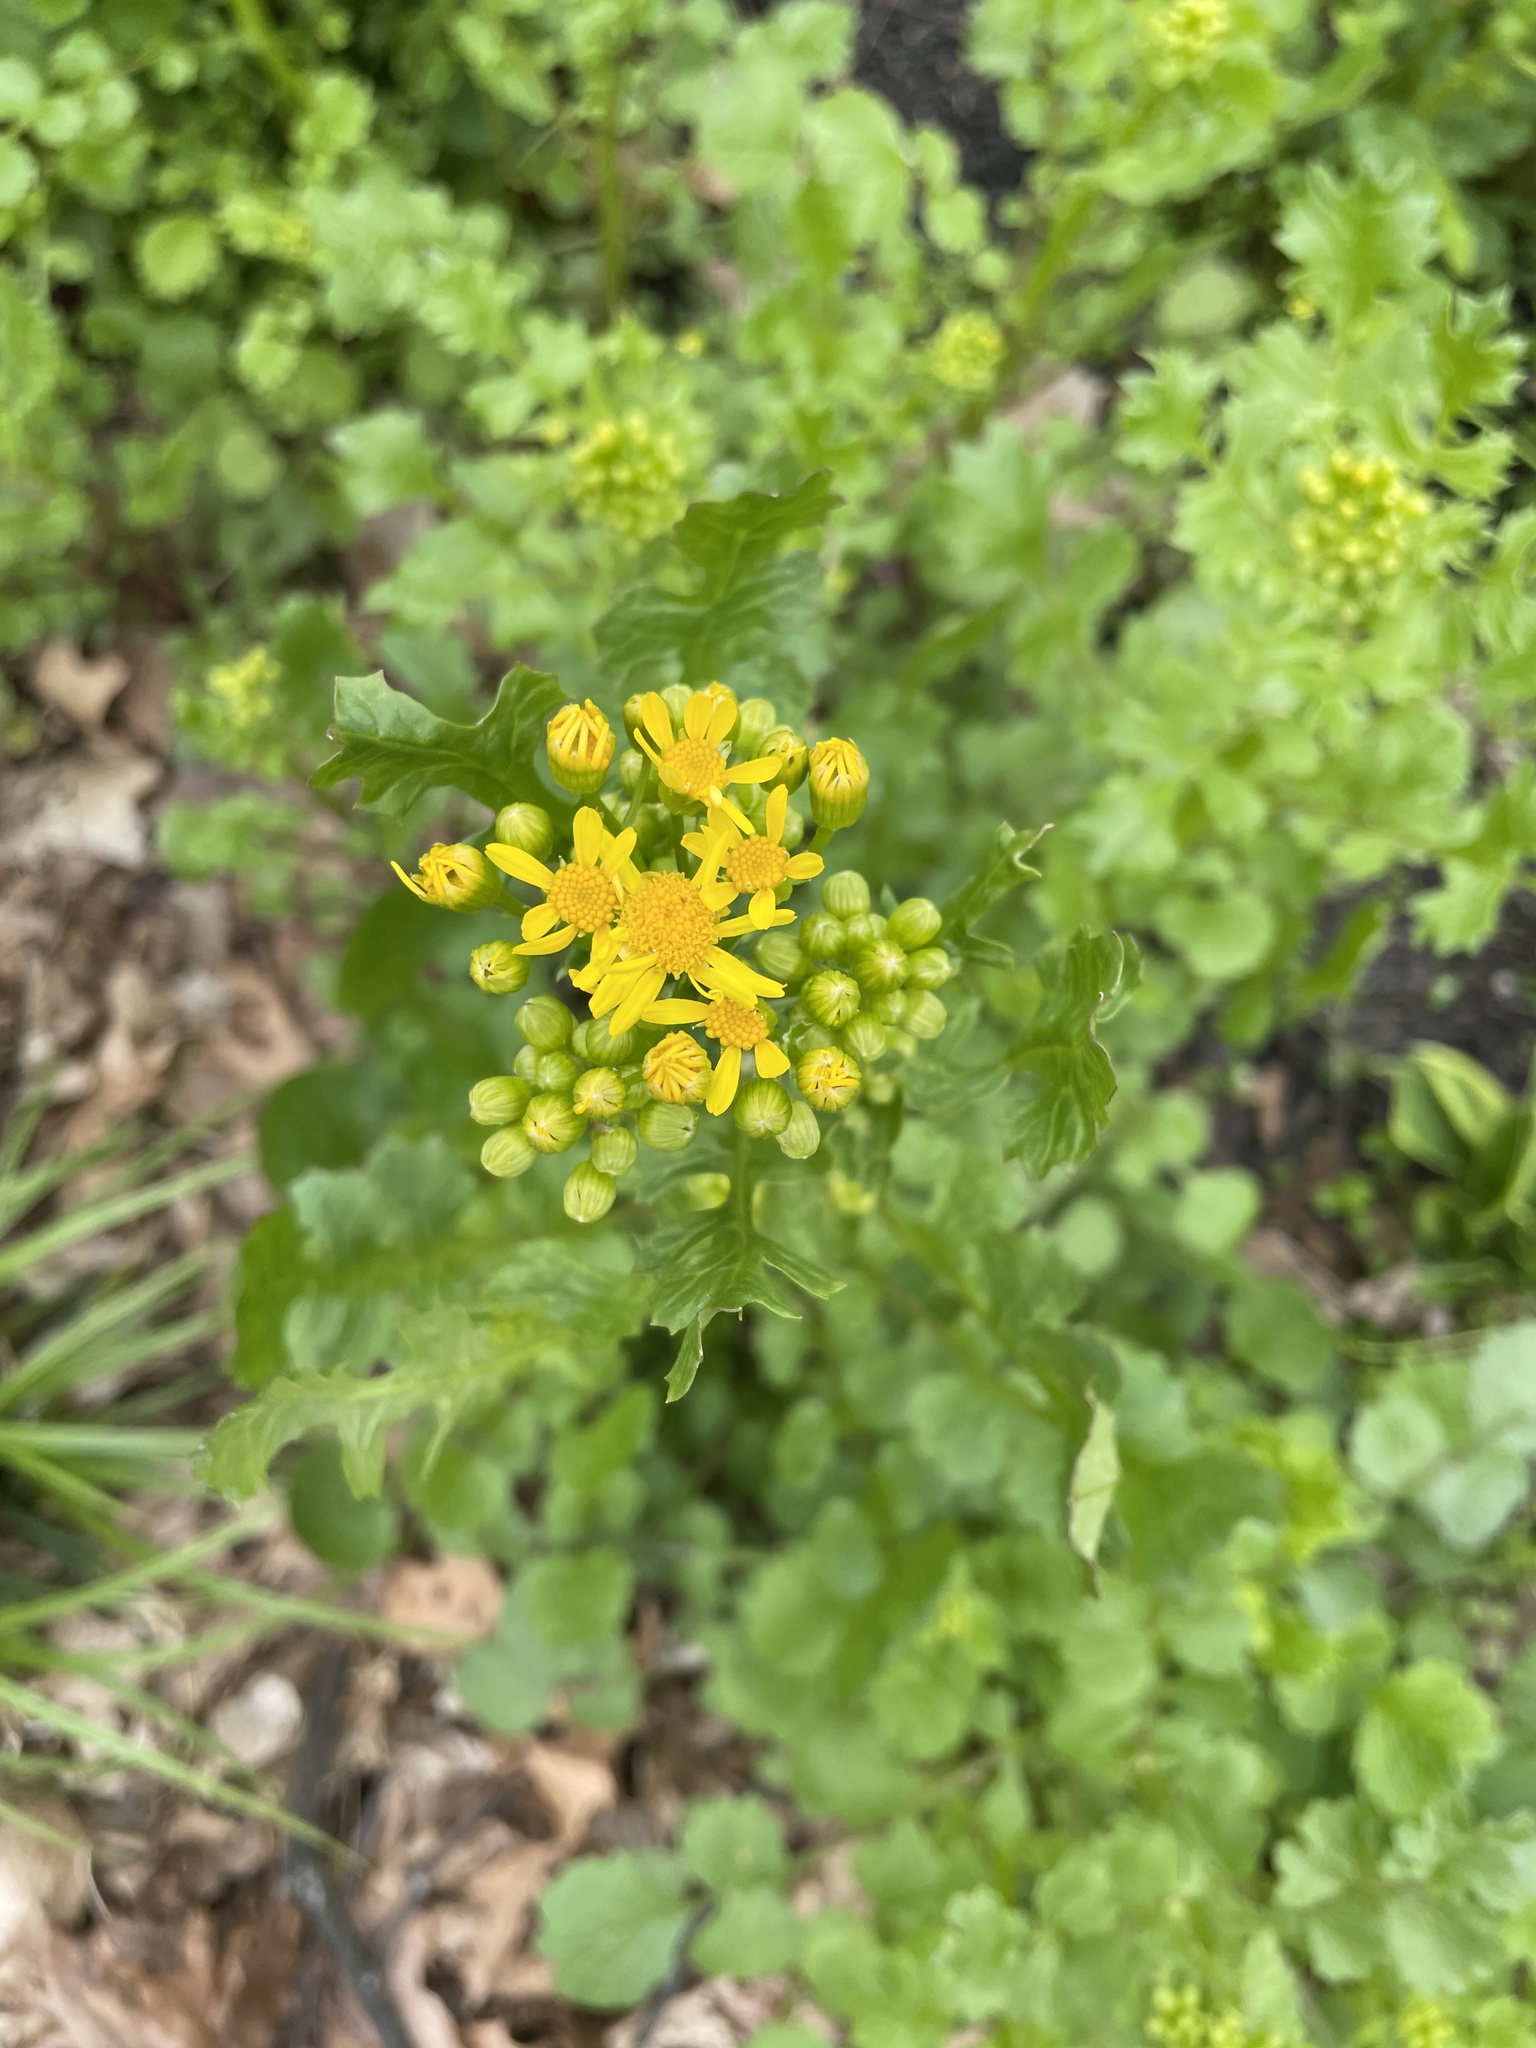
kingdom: Plantae
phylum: Tracheophyta
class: Magnoliopsida
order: Asterales
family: Asteraceae
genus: Packera
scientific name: Packera glabella
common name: Butterweed
